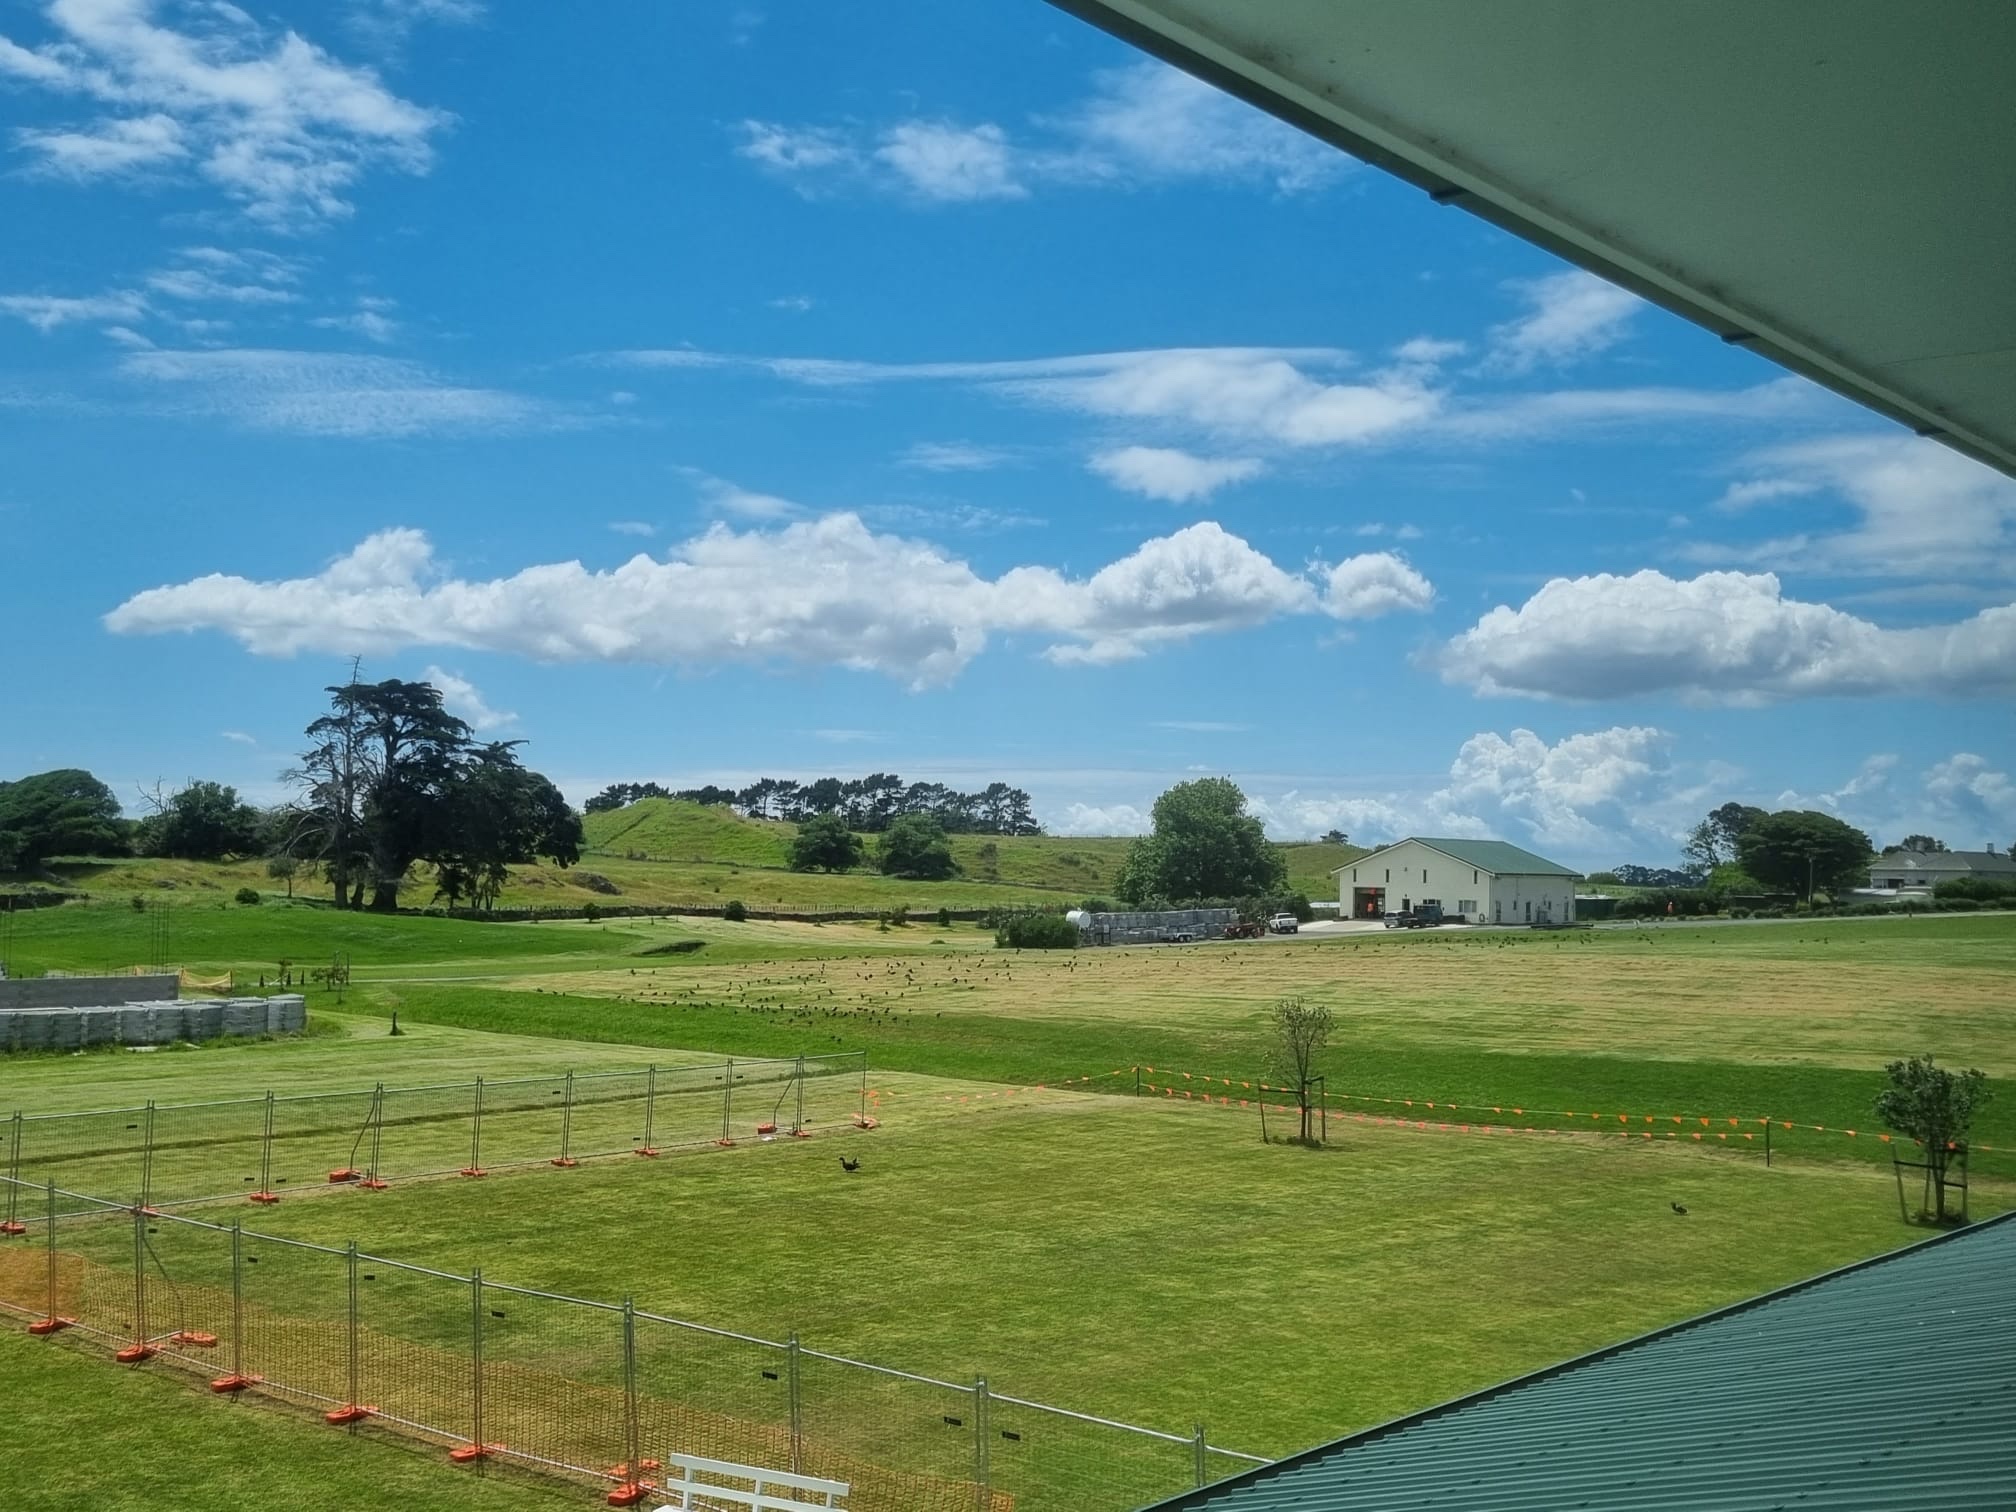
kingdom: Animalia
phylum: Chordata
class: Aves
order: Charadriiformes
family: Haematopodidae
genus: Haematopus
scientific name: Haematopus finschi
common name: South island oystercatcher
